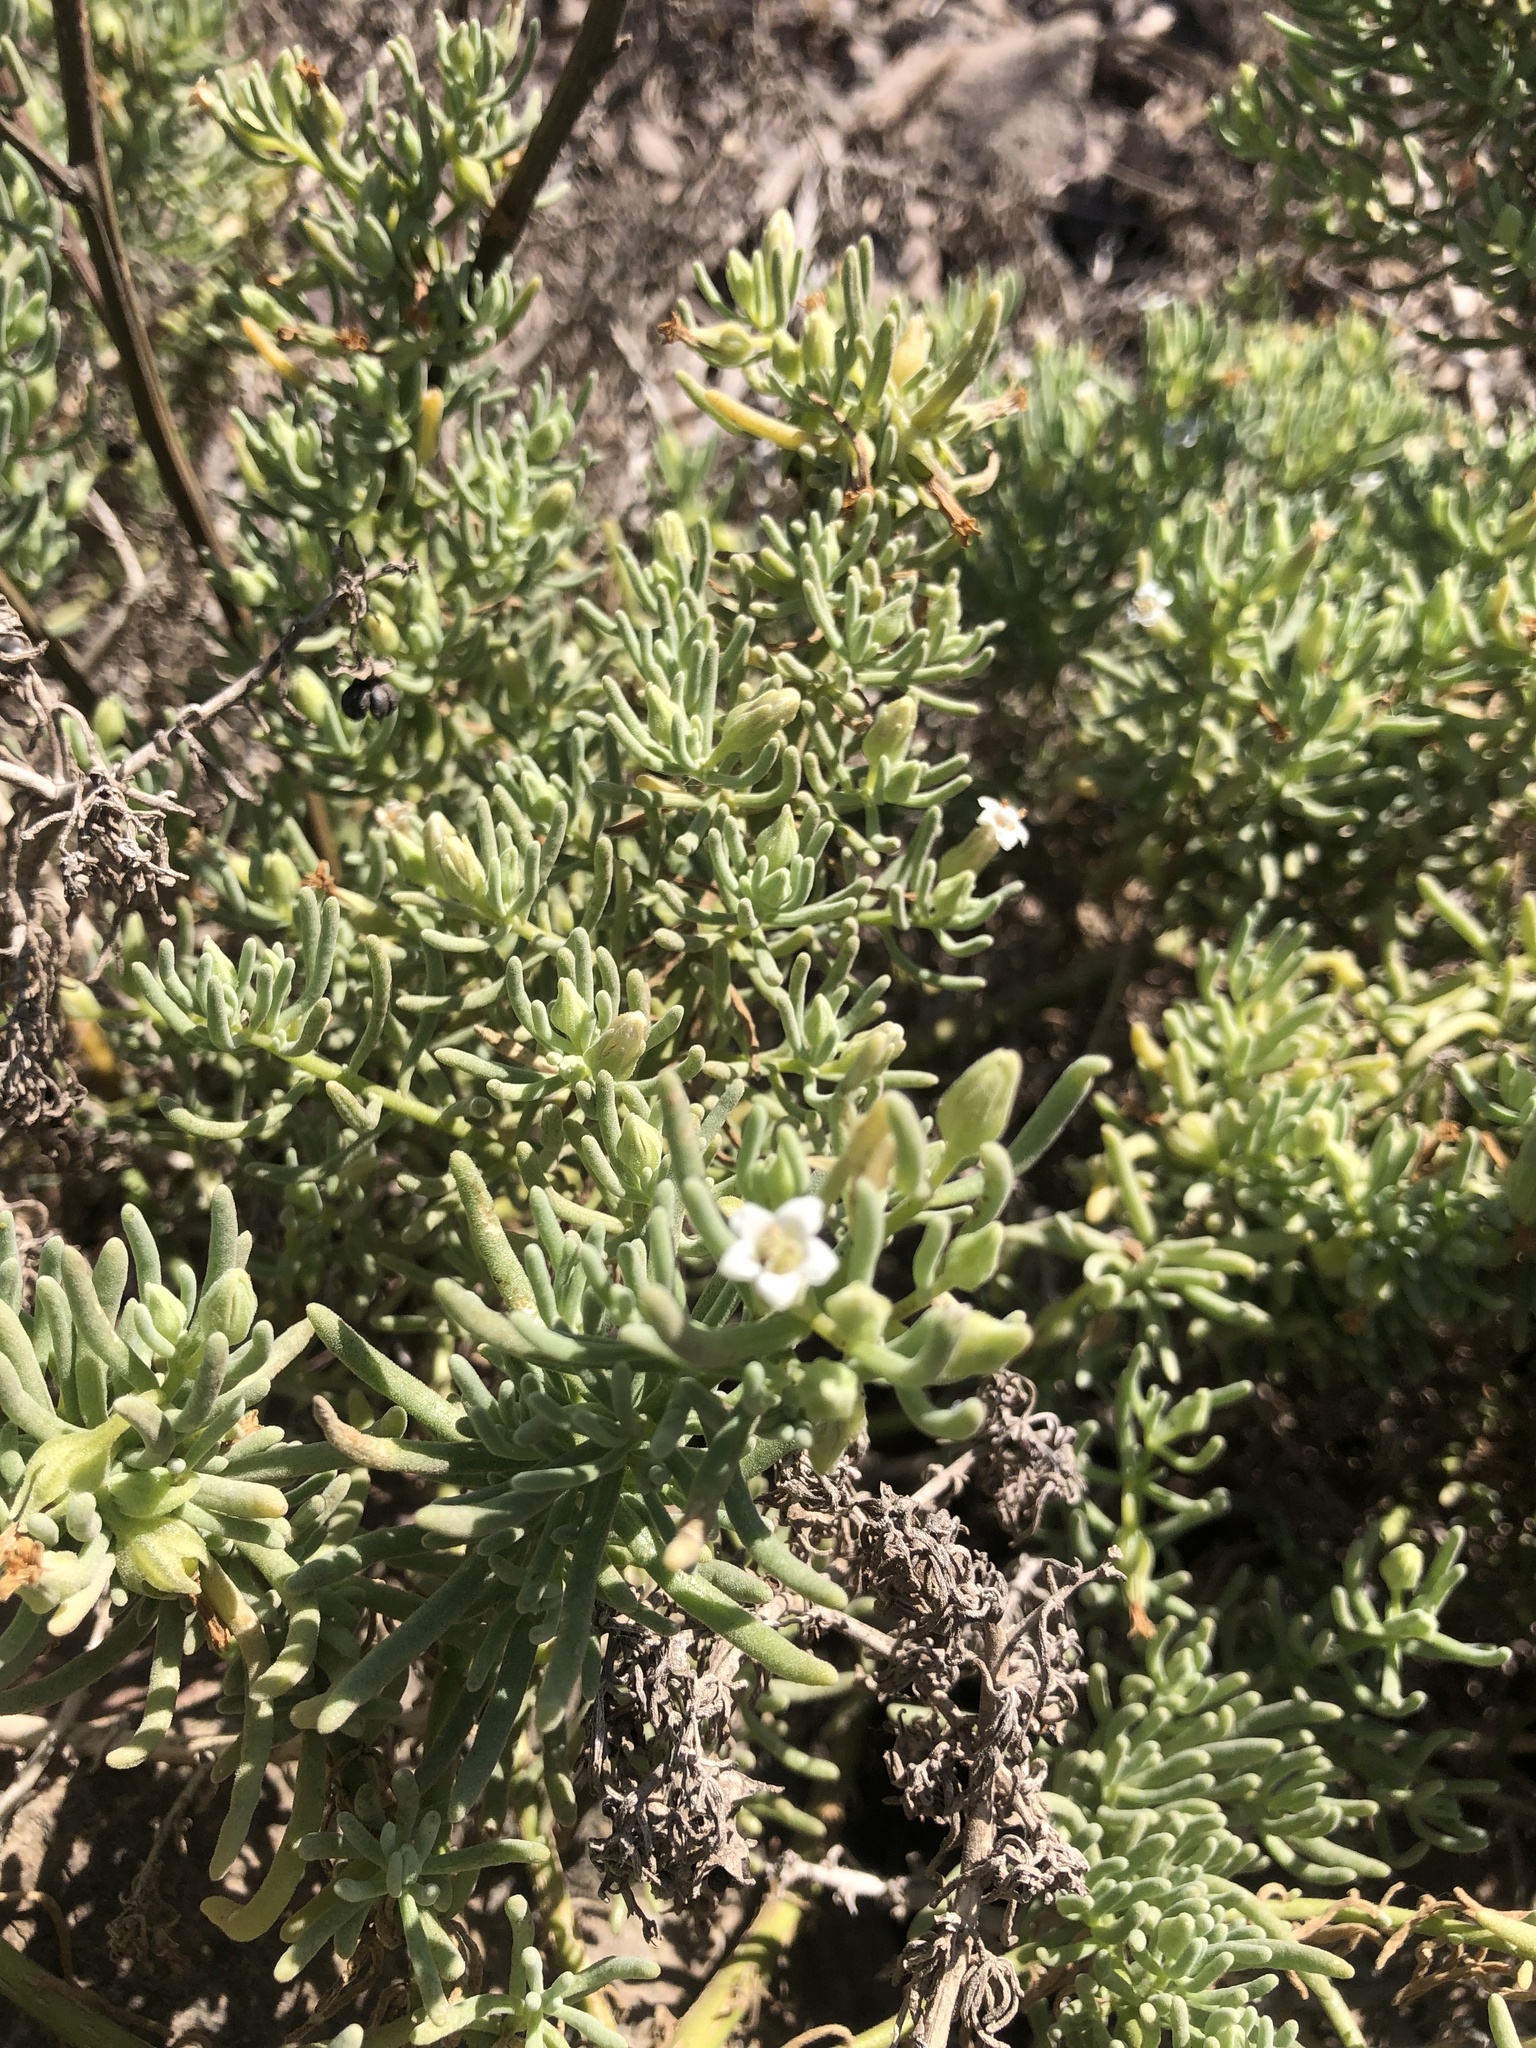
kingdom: Plantae
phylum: Tracheophyta
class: Magnoliopsida
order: Solanales
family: Solanaceae
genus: Nolana
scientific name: Nolana werdermannii
